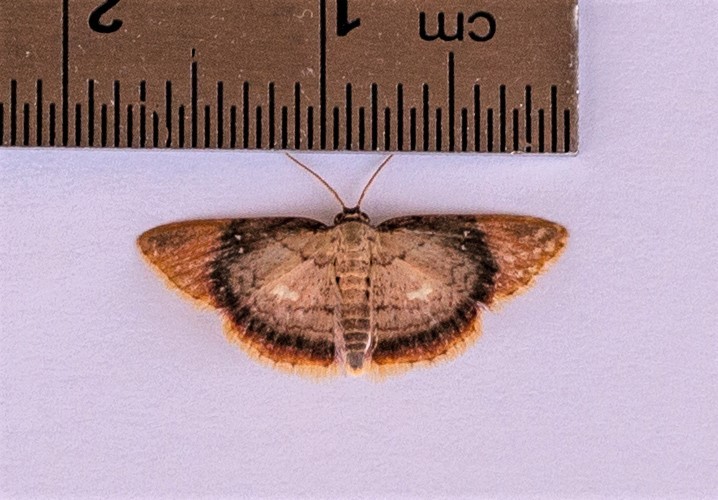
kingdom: Animalia
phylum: Arthropoda
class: Insecta
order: Lepidoptera
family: Geometridae
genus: Tricentra
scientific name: Tricentra albiguttata
